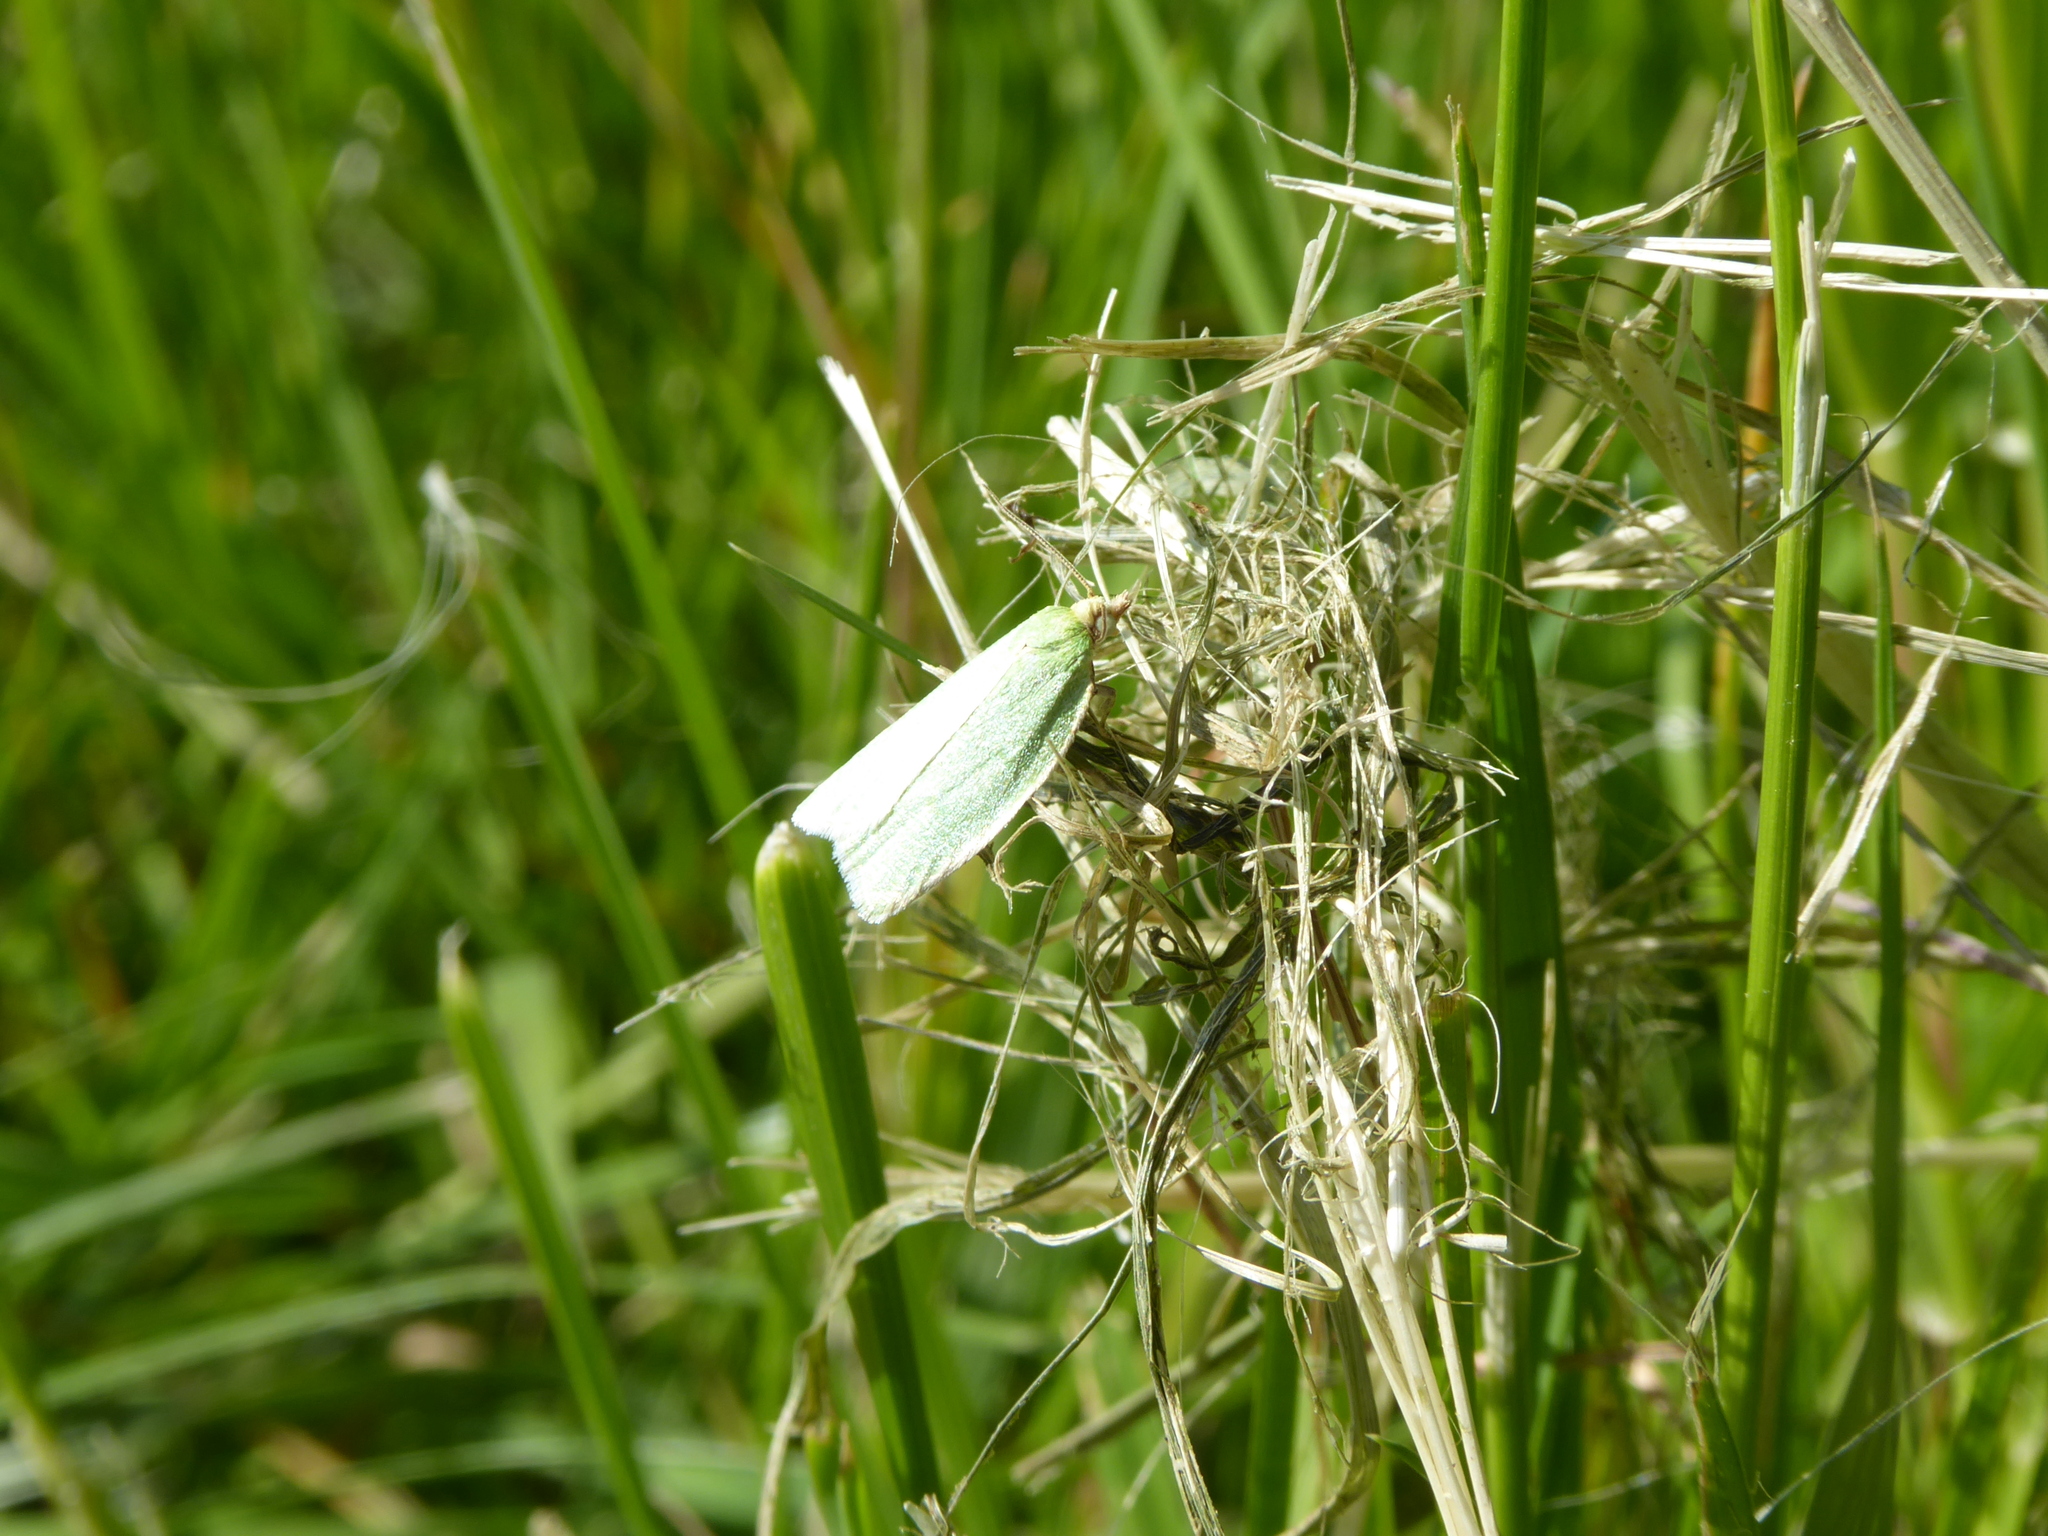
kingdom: Animalia
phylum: Arthropoda
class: Insecta
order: Lepidoptera
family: Tortricidae
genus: Tortrix
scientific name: Tortrix viridana
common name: Green oak tortrix
